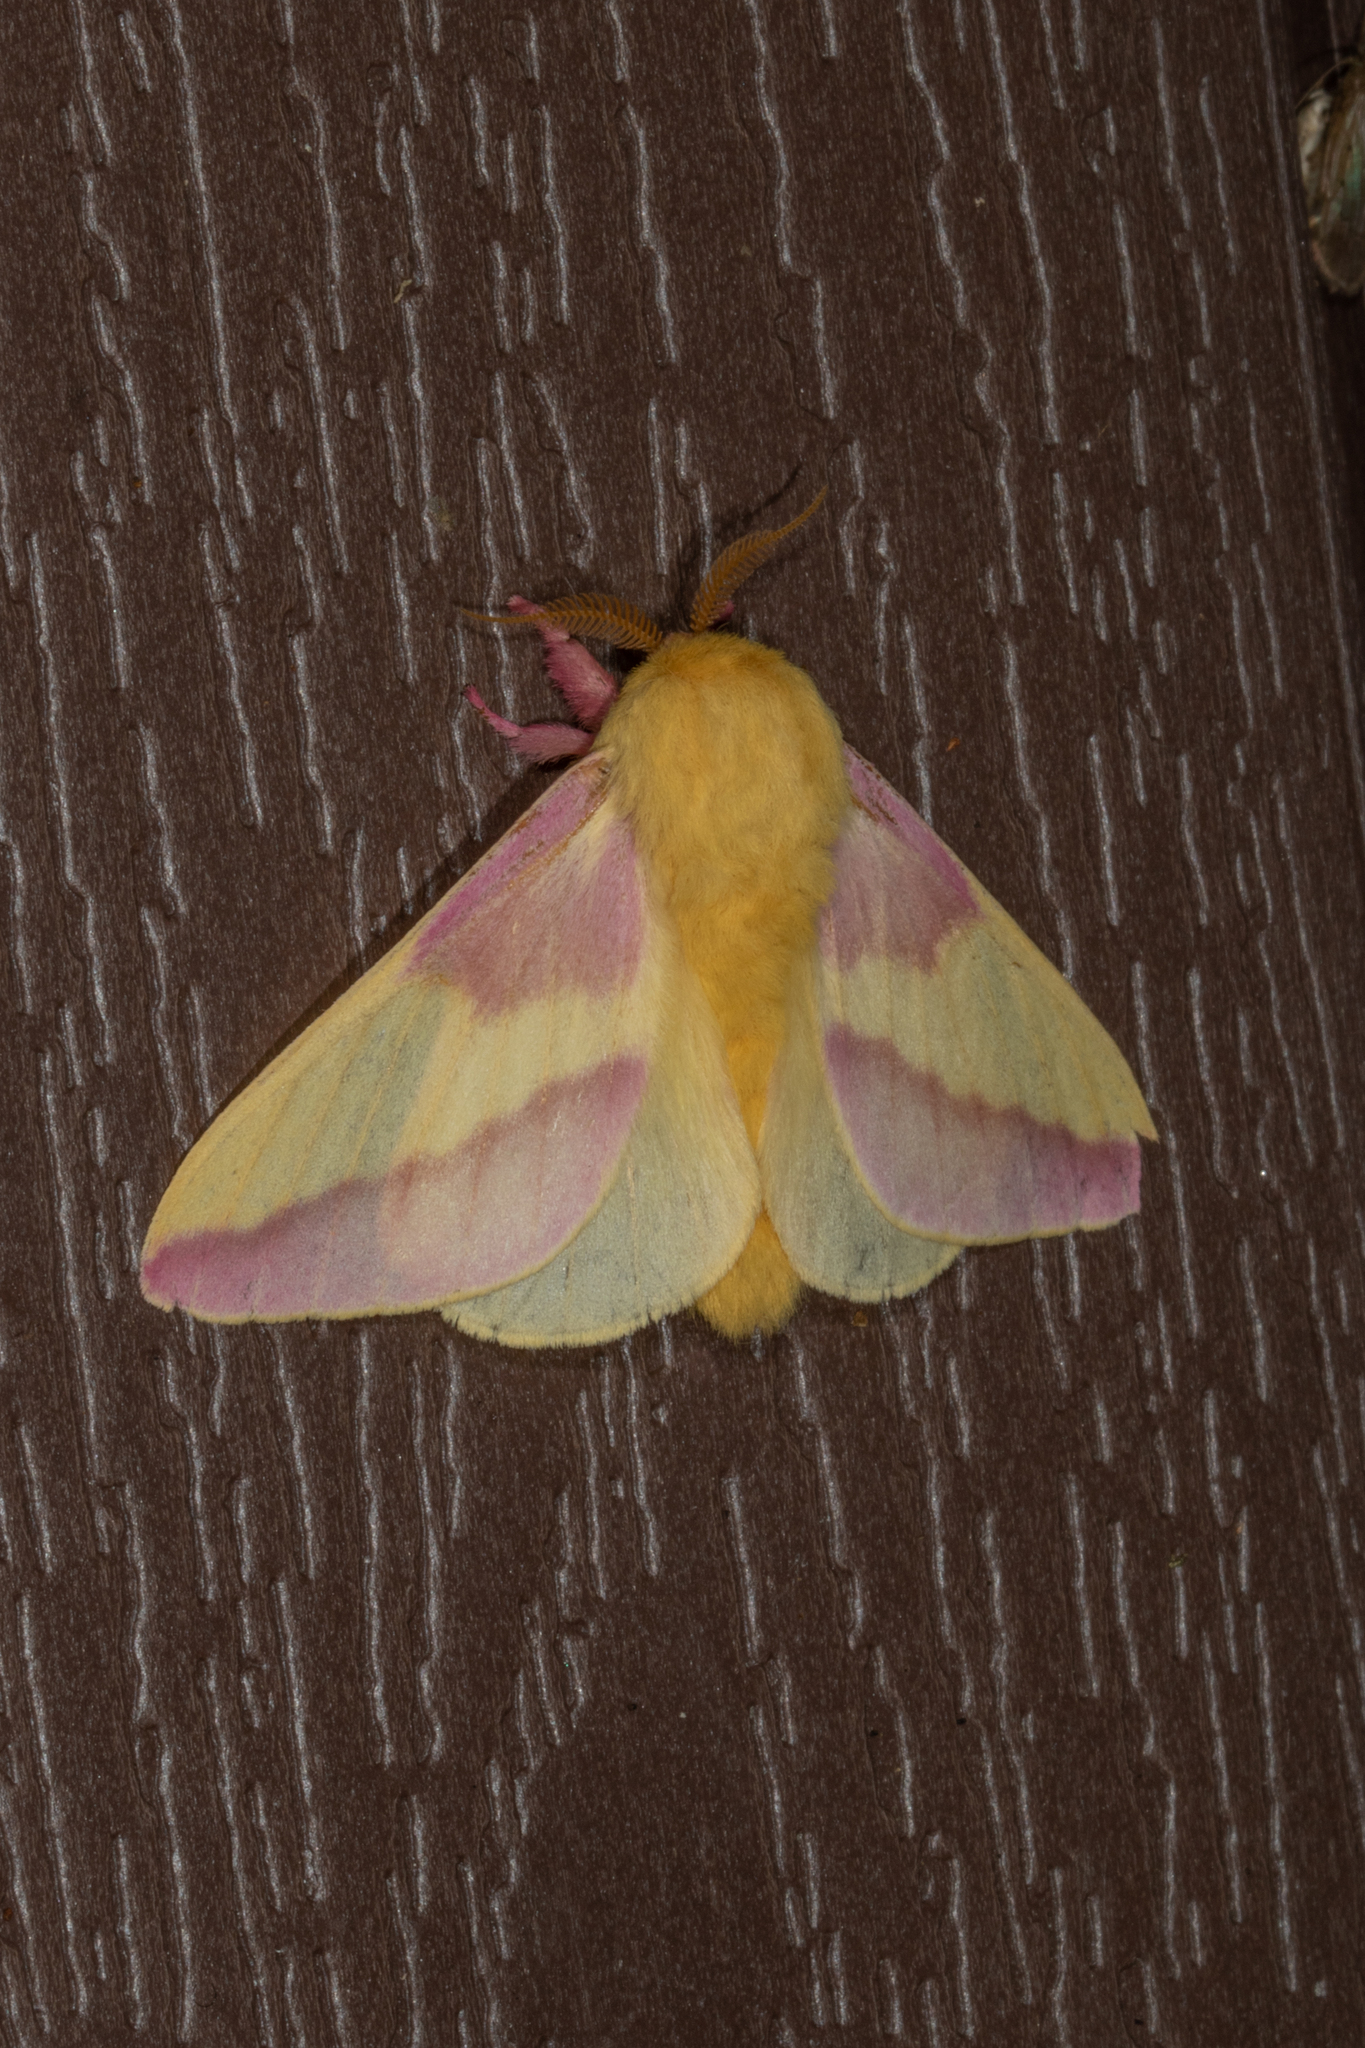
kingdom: Animalia
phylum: Arthropoda
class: Insecta
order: Lepidoptera
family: Saturniidae
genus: Dryocampa
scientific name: Dryocampa rubicunda
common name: Rosy maple moth
